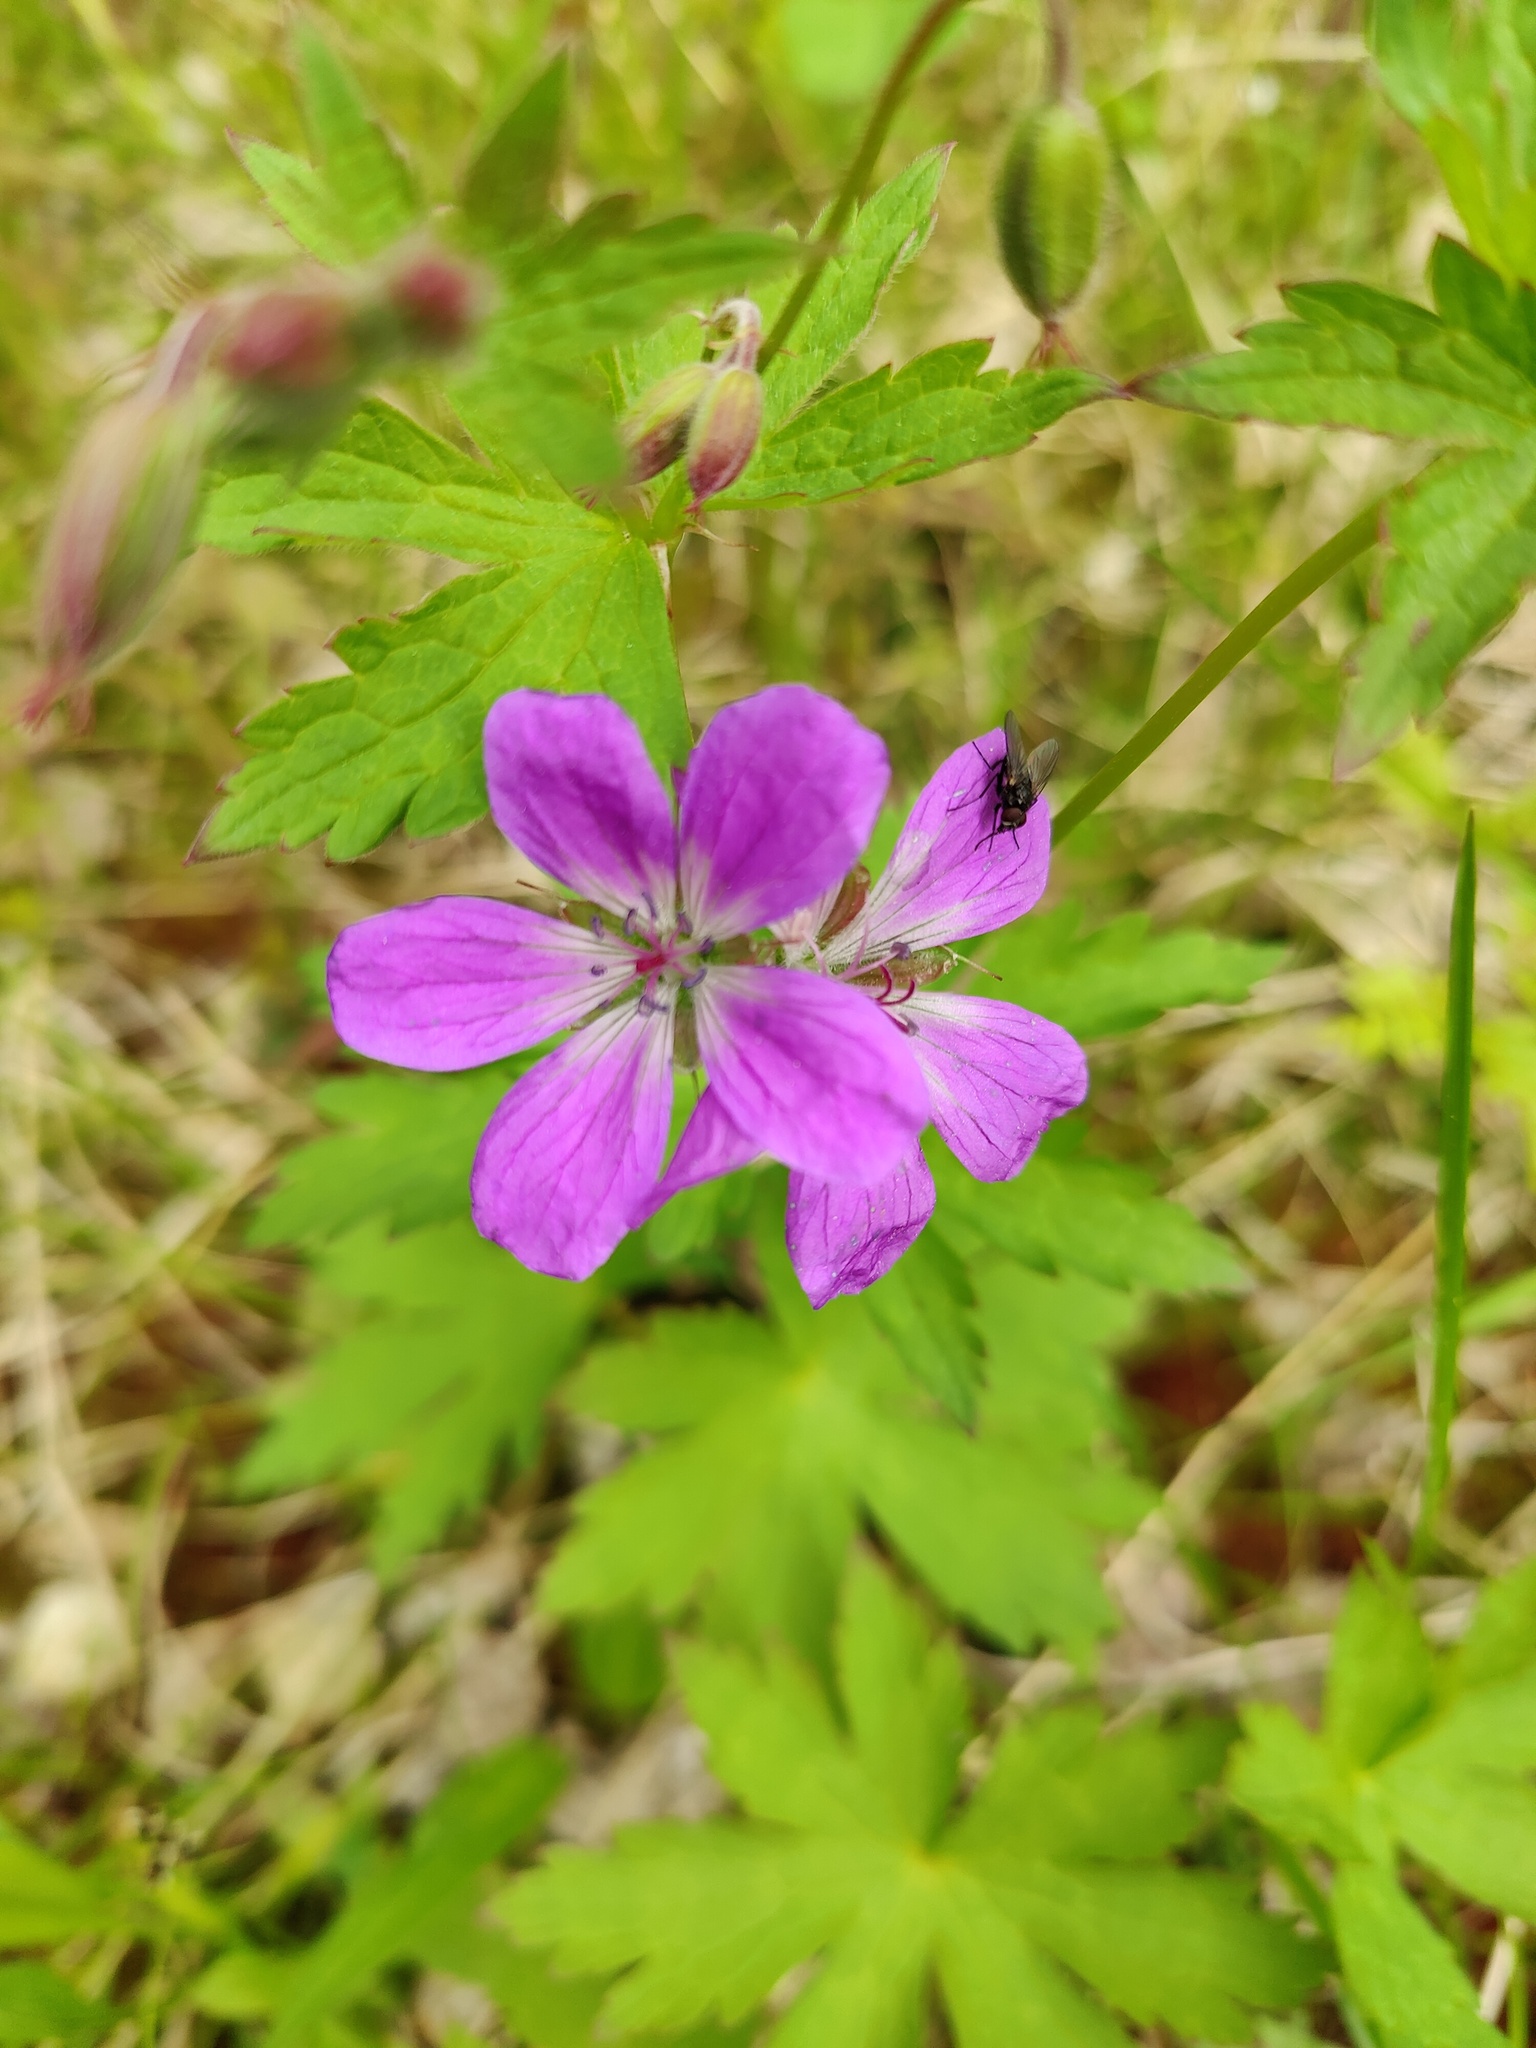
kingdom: Plantae
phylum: Tracheophyta
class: Magnoliopsida
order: Geraniales
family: Geraniaceae
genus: Geranium
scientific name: Geranium sylvaticum
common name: Wood crane's-bill
